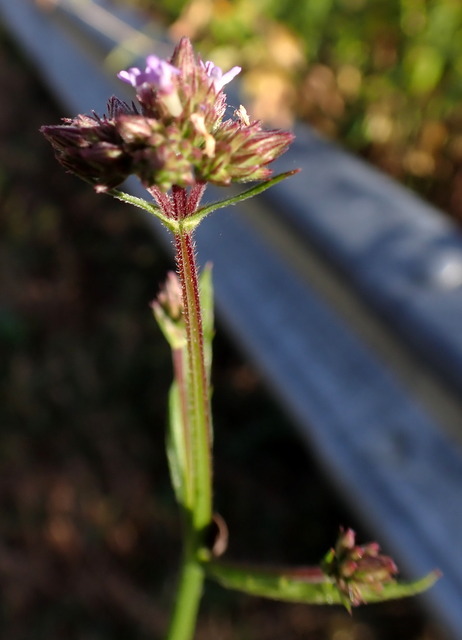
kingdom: Plantae
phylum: Tracheophyta
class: Magnoliopsida
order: Lamiales
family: Verbenaceae
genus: Verbena
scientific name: Verbena brasiliensis
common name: Brazilian vervain
